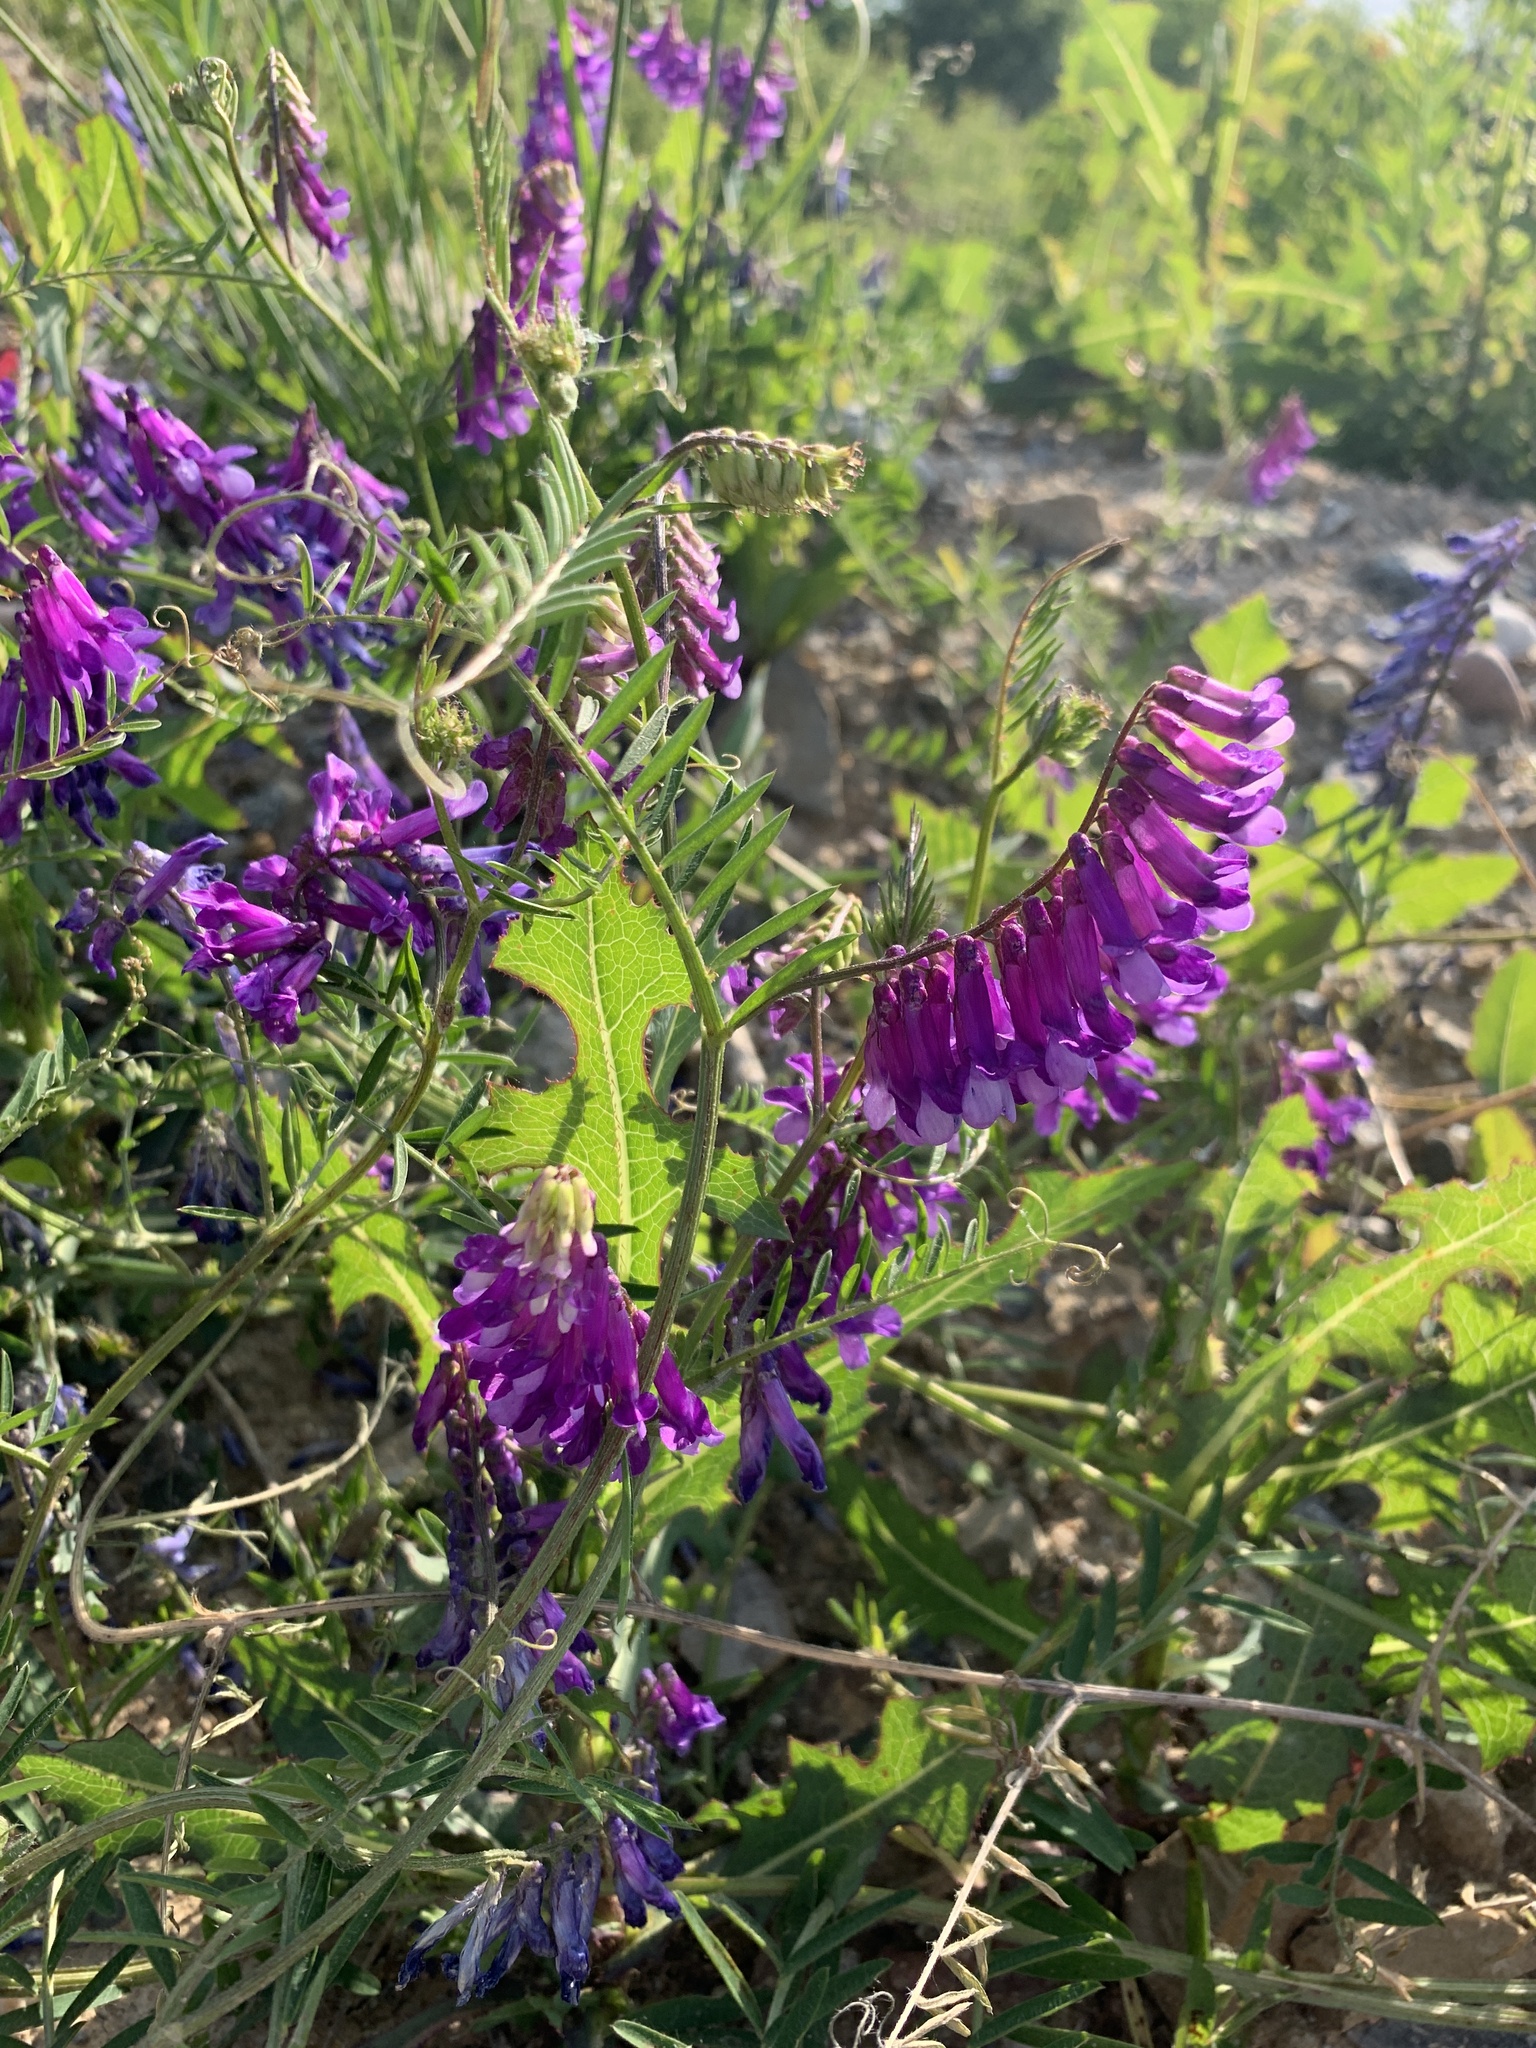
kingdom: Plantae
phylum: Tracheophyta
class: Magnoliopsida
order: Fabales
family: Fabaceae
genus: Vicia
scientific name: Vicia villosa
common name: Fodder vetch
